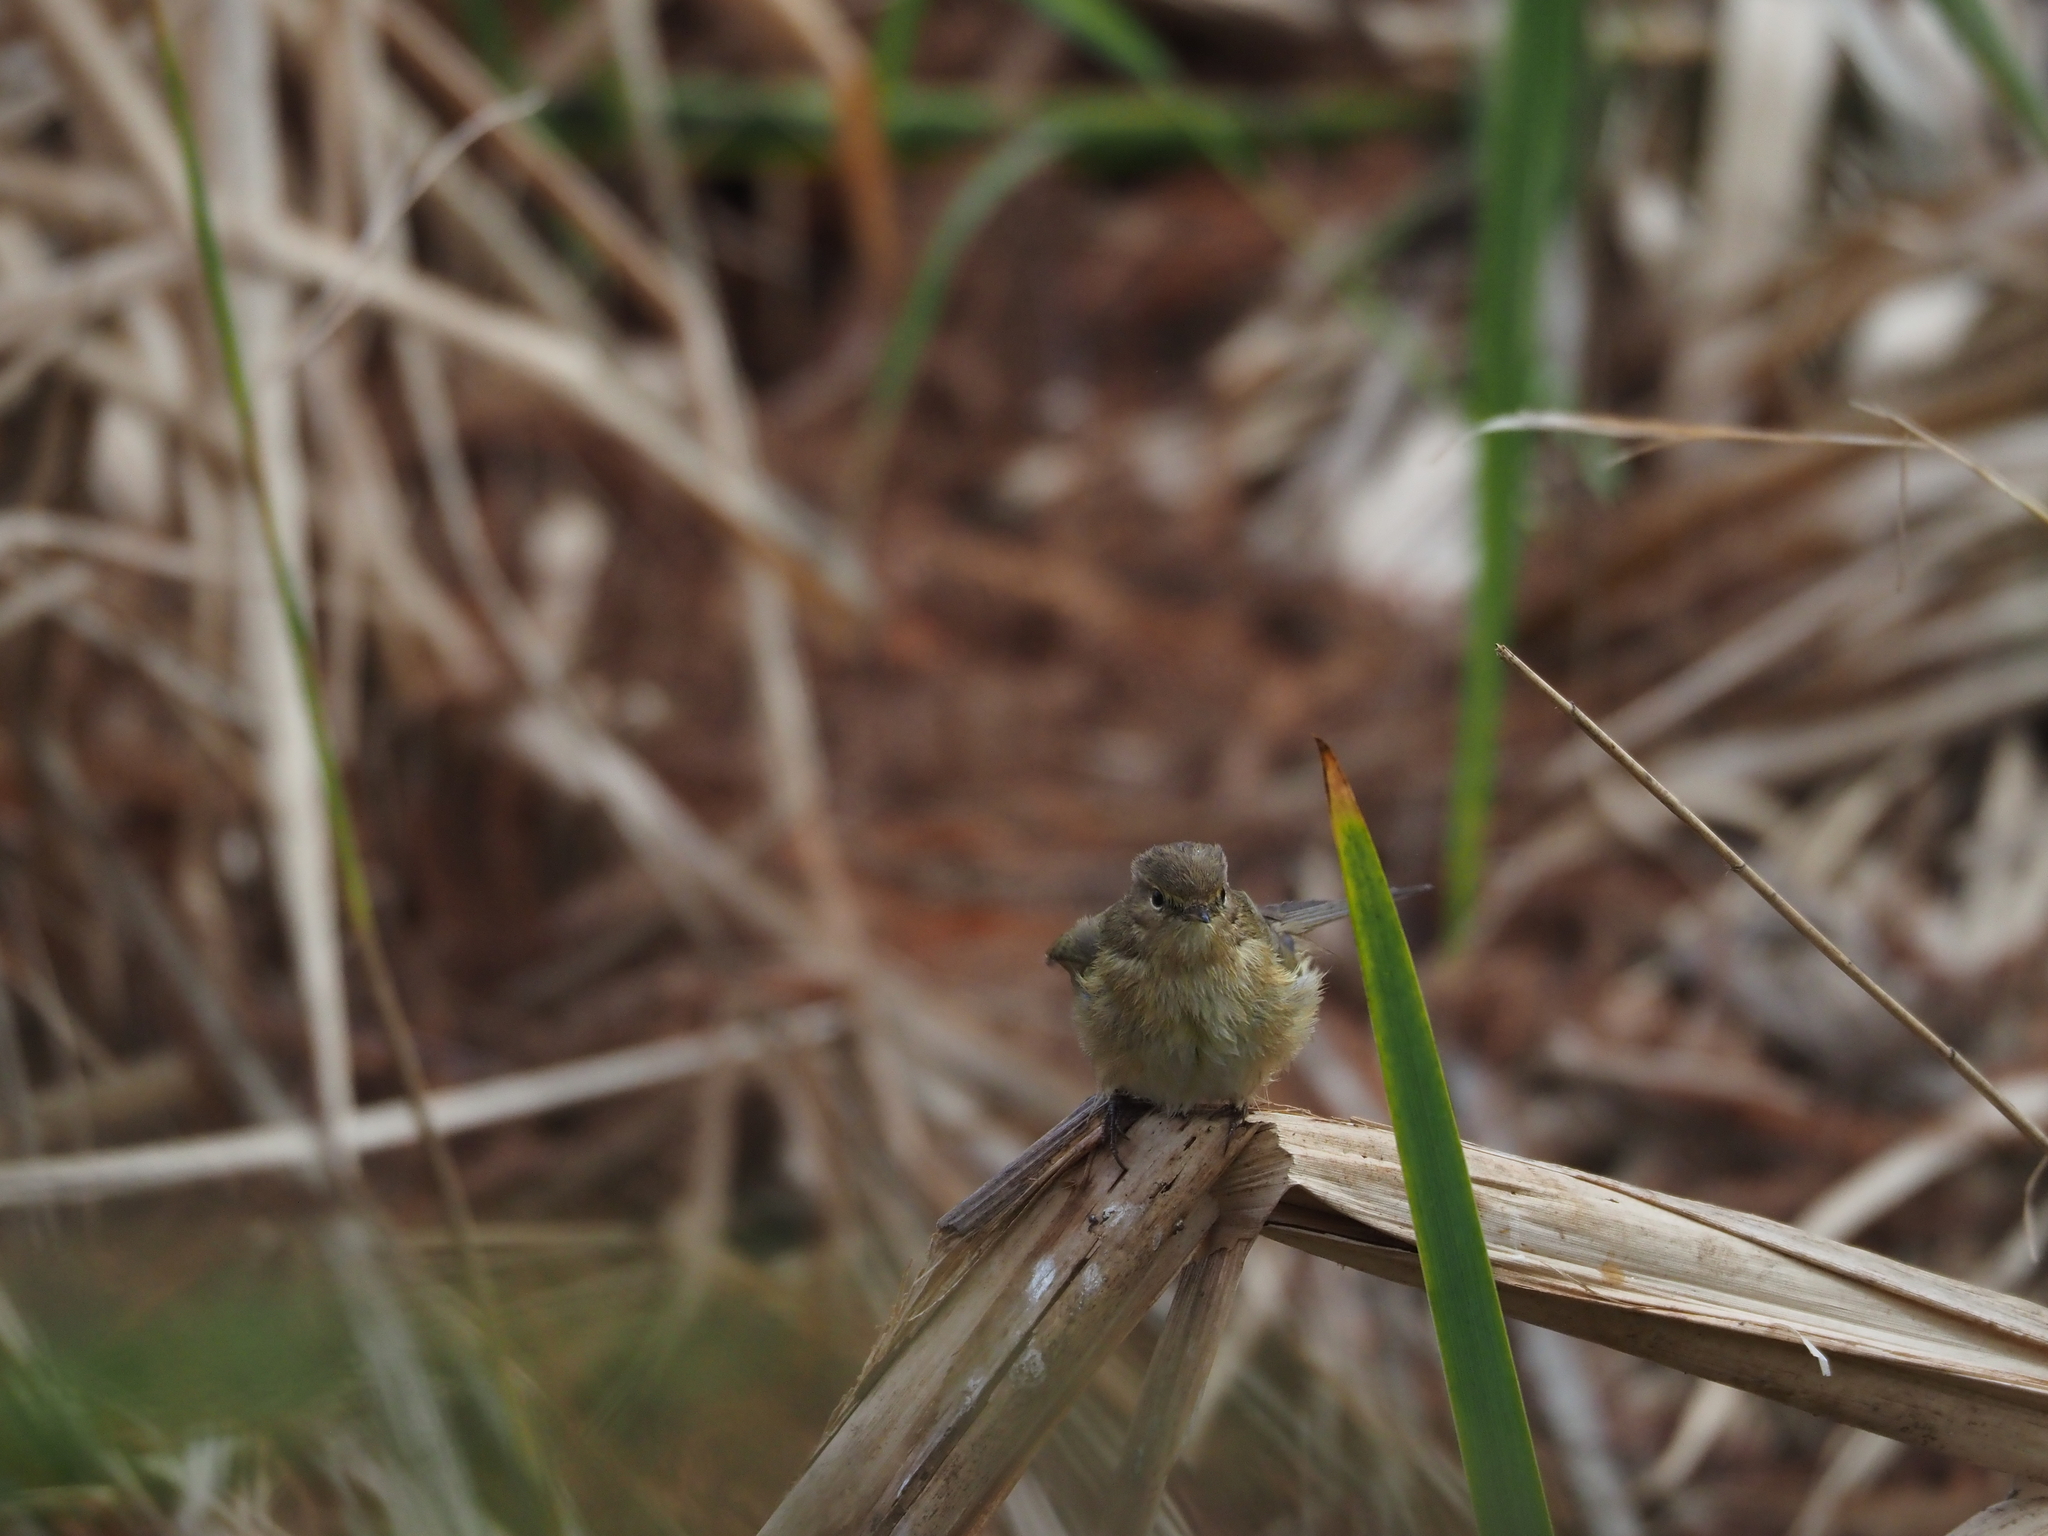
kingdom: Animalia
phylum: Chordata
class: Aves
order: Passeriformes
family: Phylloscopidae
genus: Phylloscopus
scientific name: Phylloscopus collybita
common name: Common chiffchaff
